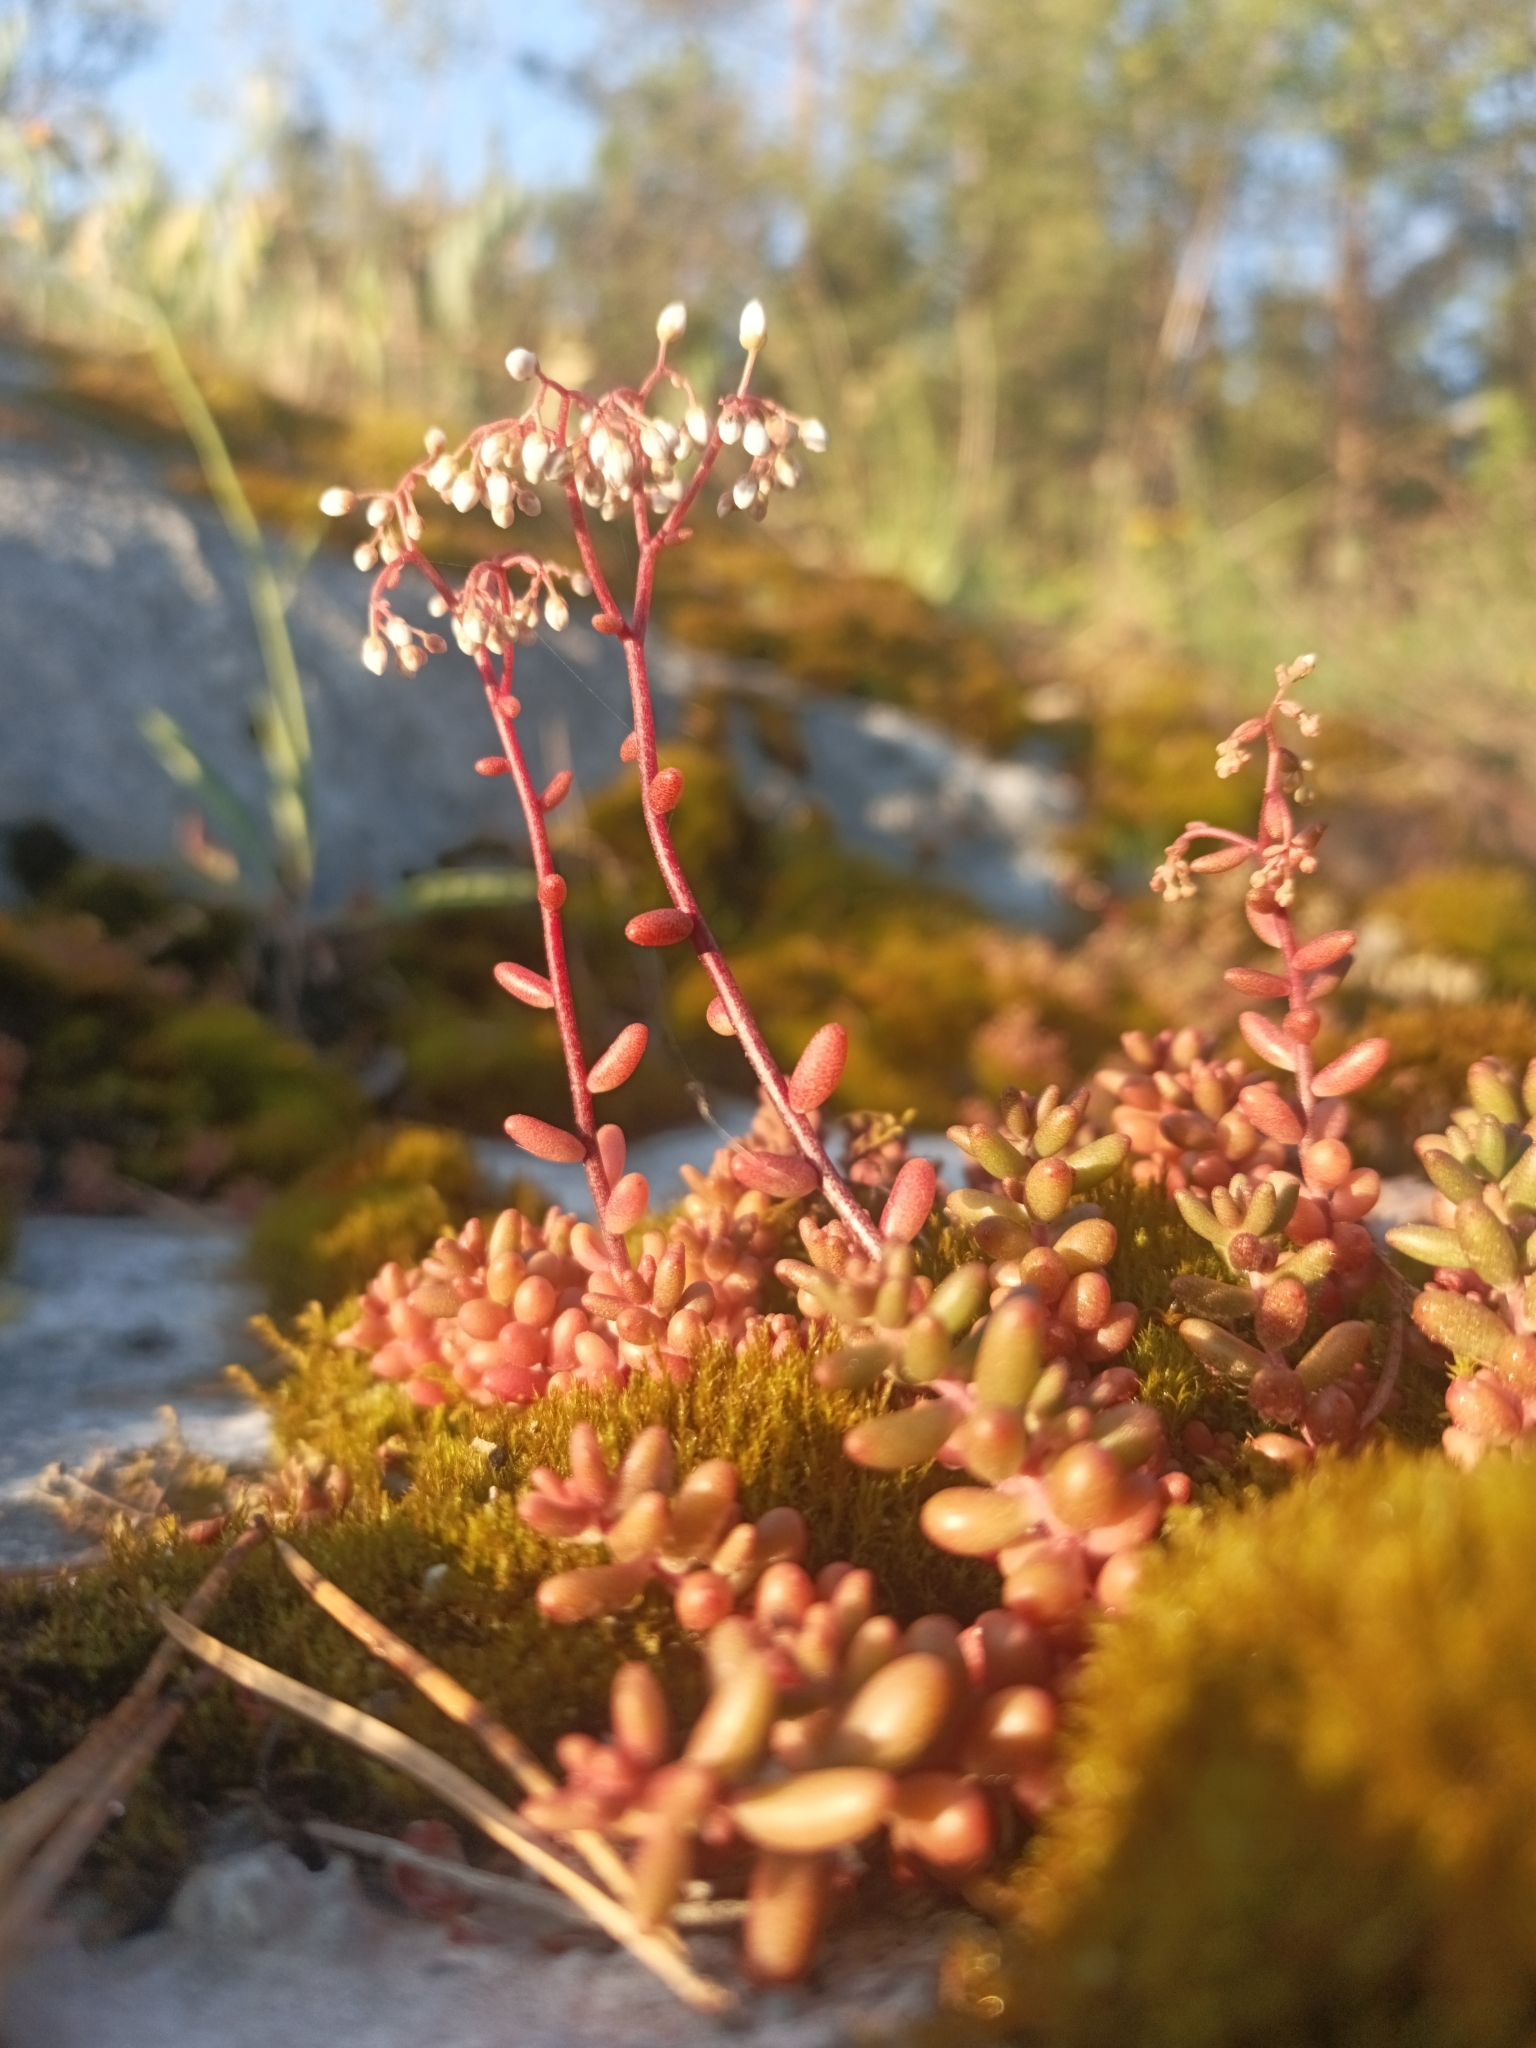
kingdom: Plantae
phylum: Tracheophyta
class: Magnoliopsida
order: Saxifragales
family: Crassulaceae
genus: Sedum
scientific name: Sedum album
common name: White stonecrop
